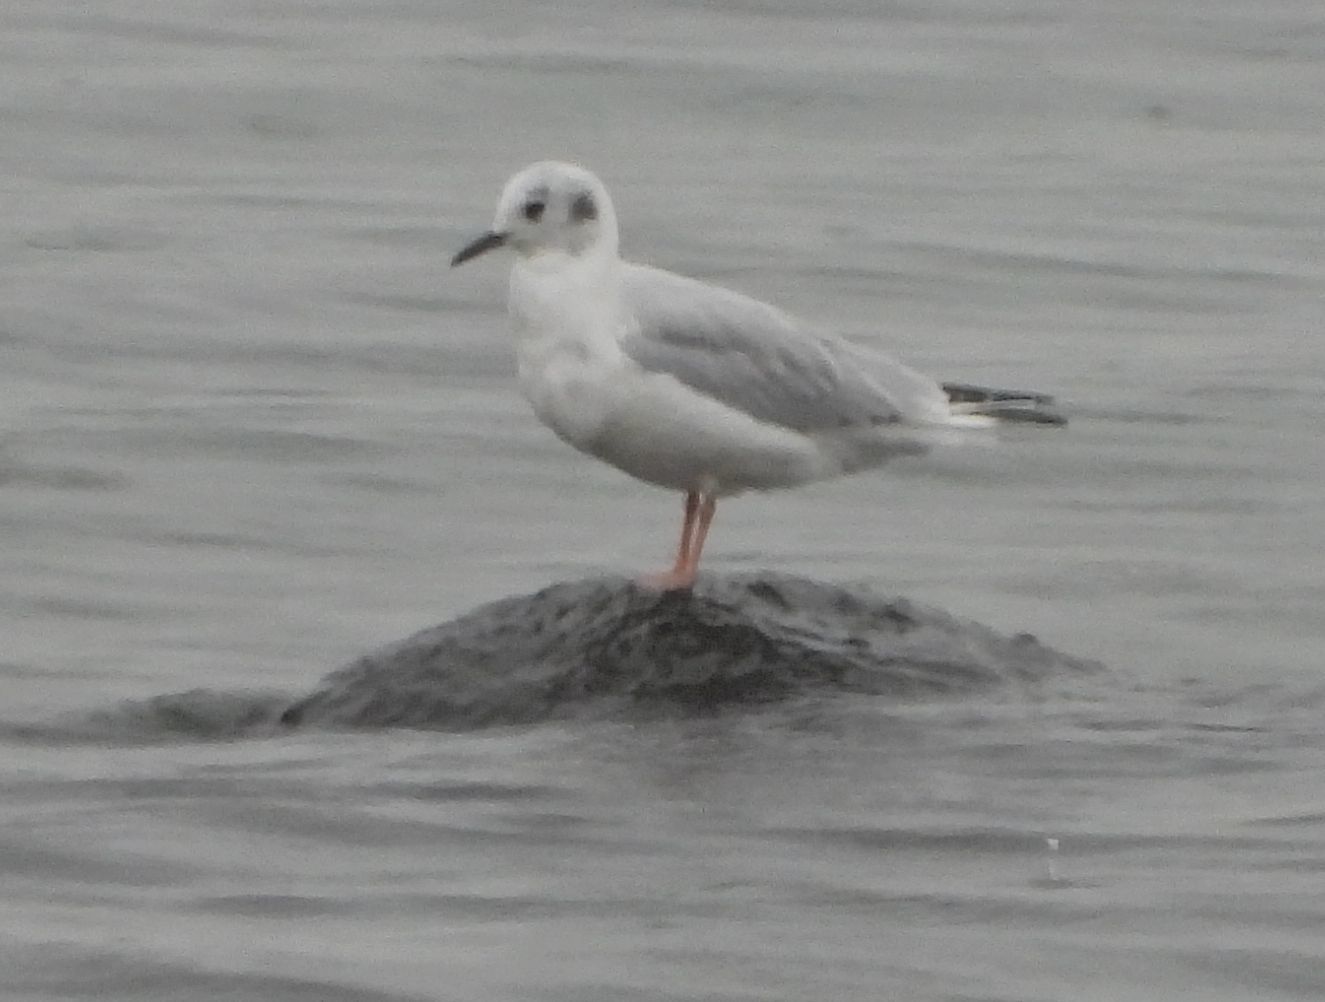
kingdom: Animalia
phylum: Chordata
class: Aves
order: Charadriiformes
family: Laridae
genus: Chroicocephalus
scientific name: Chroicocephalus philadelphia
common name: Bonaparte's gull
